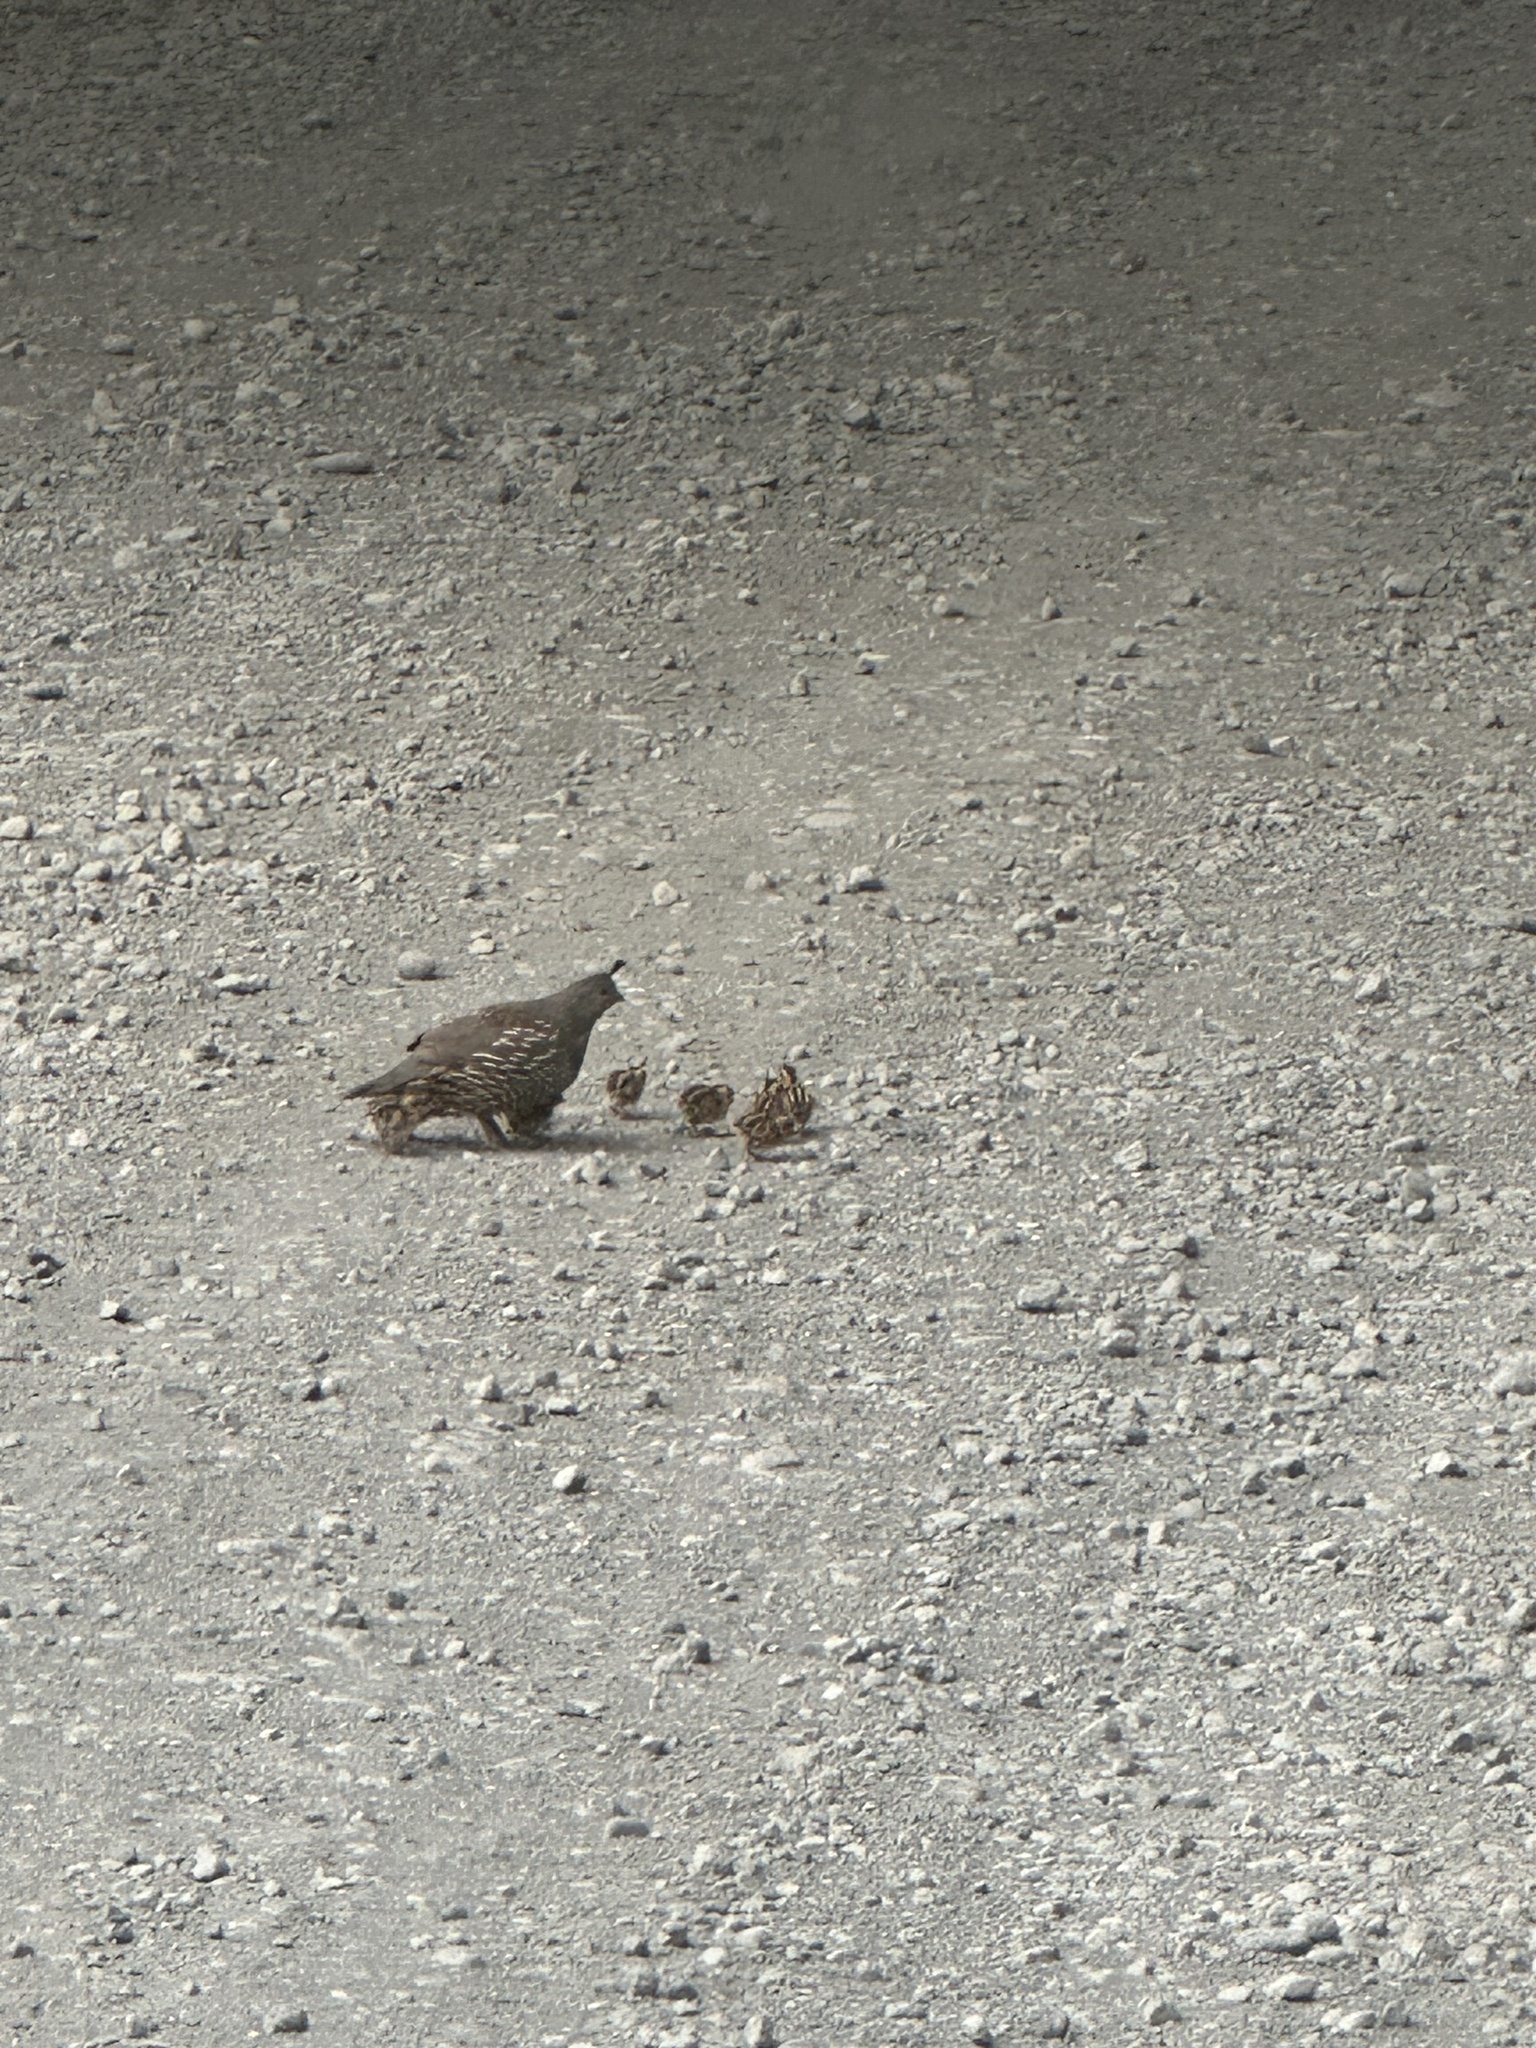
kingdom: Animalia
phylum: Chordata
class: Aves
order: Galliformes
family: Odontophoridae
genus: Callipepla
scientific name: Callipepla californica
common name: California quail
